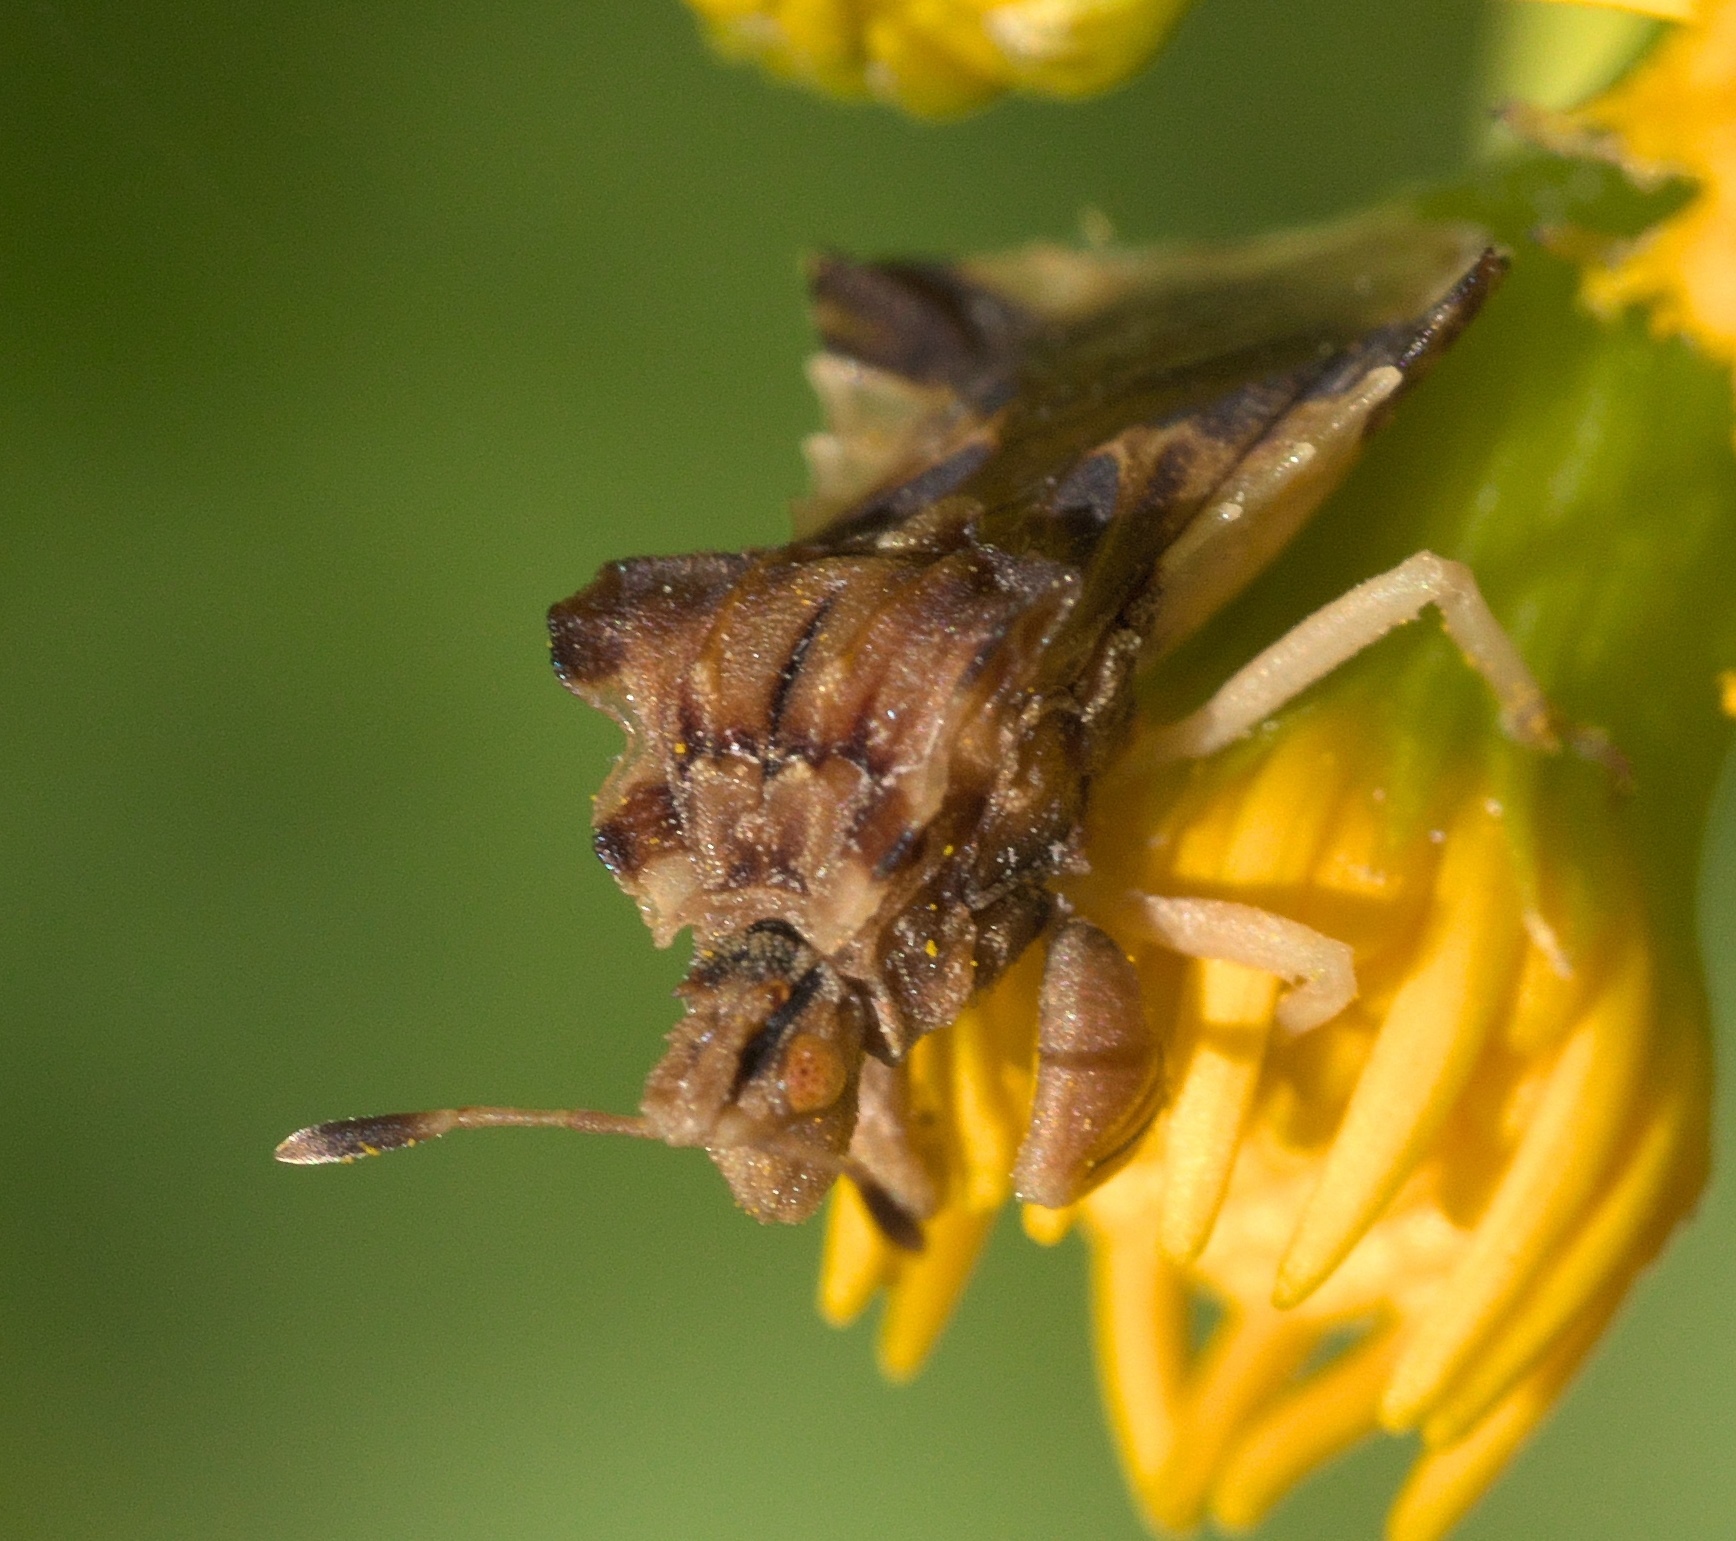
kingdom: Animalia
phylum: Arthropoda
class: Insecta
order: Hemiptera
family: Reduviidae
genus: Phymata
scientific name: Phymata fasciata
